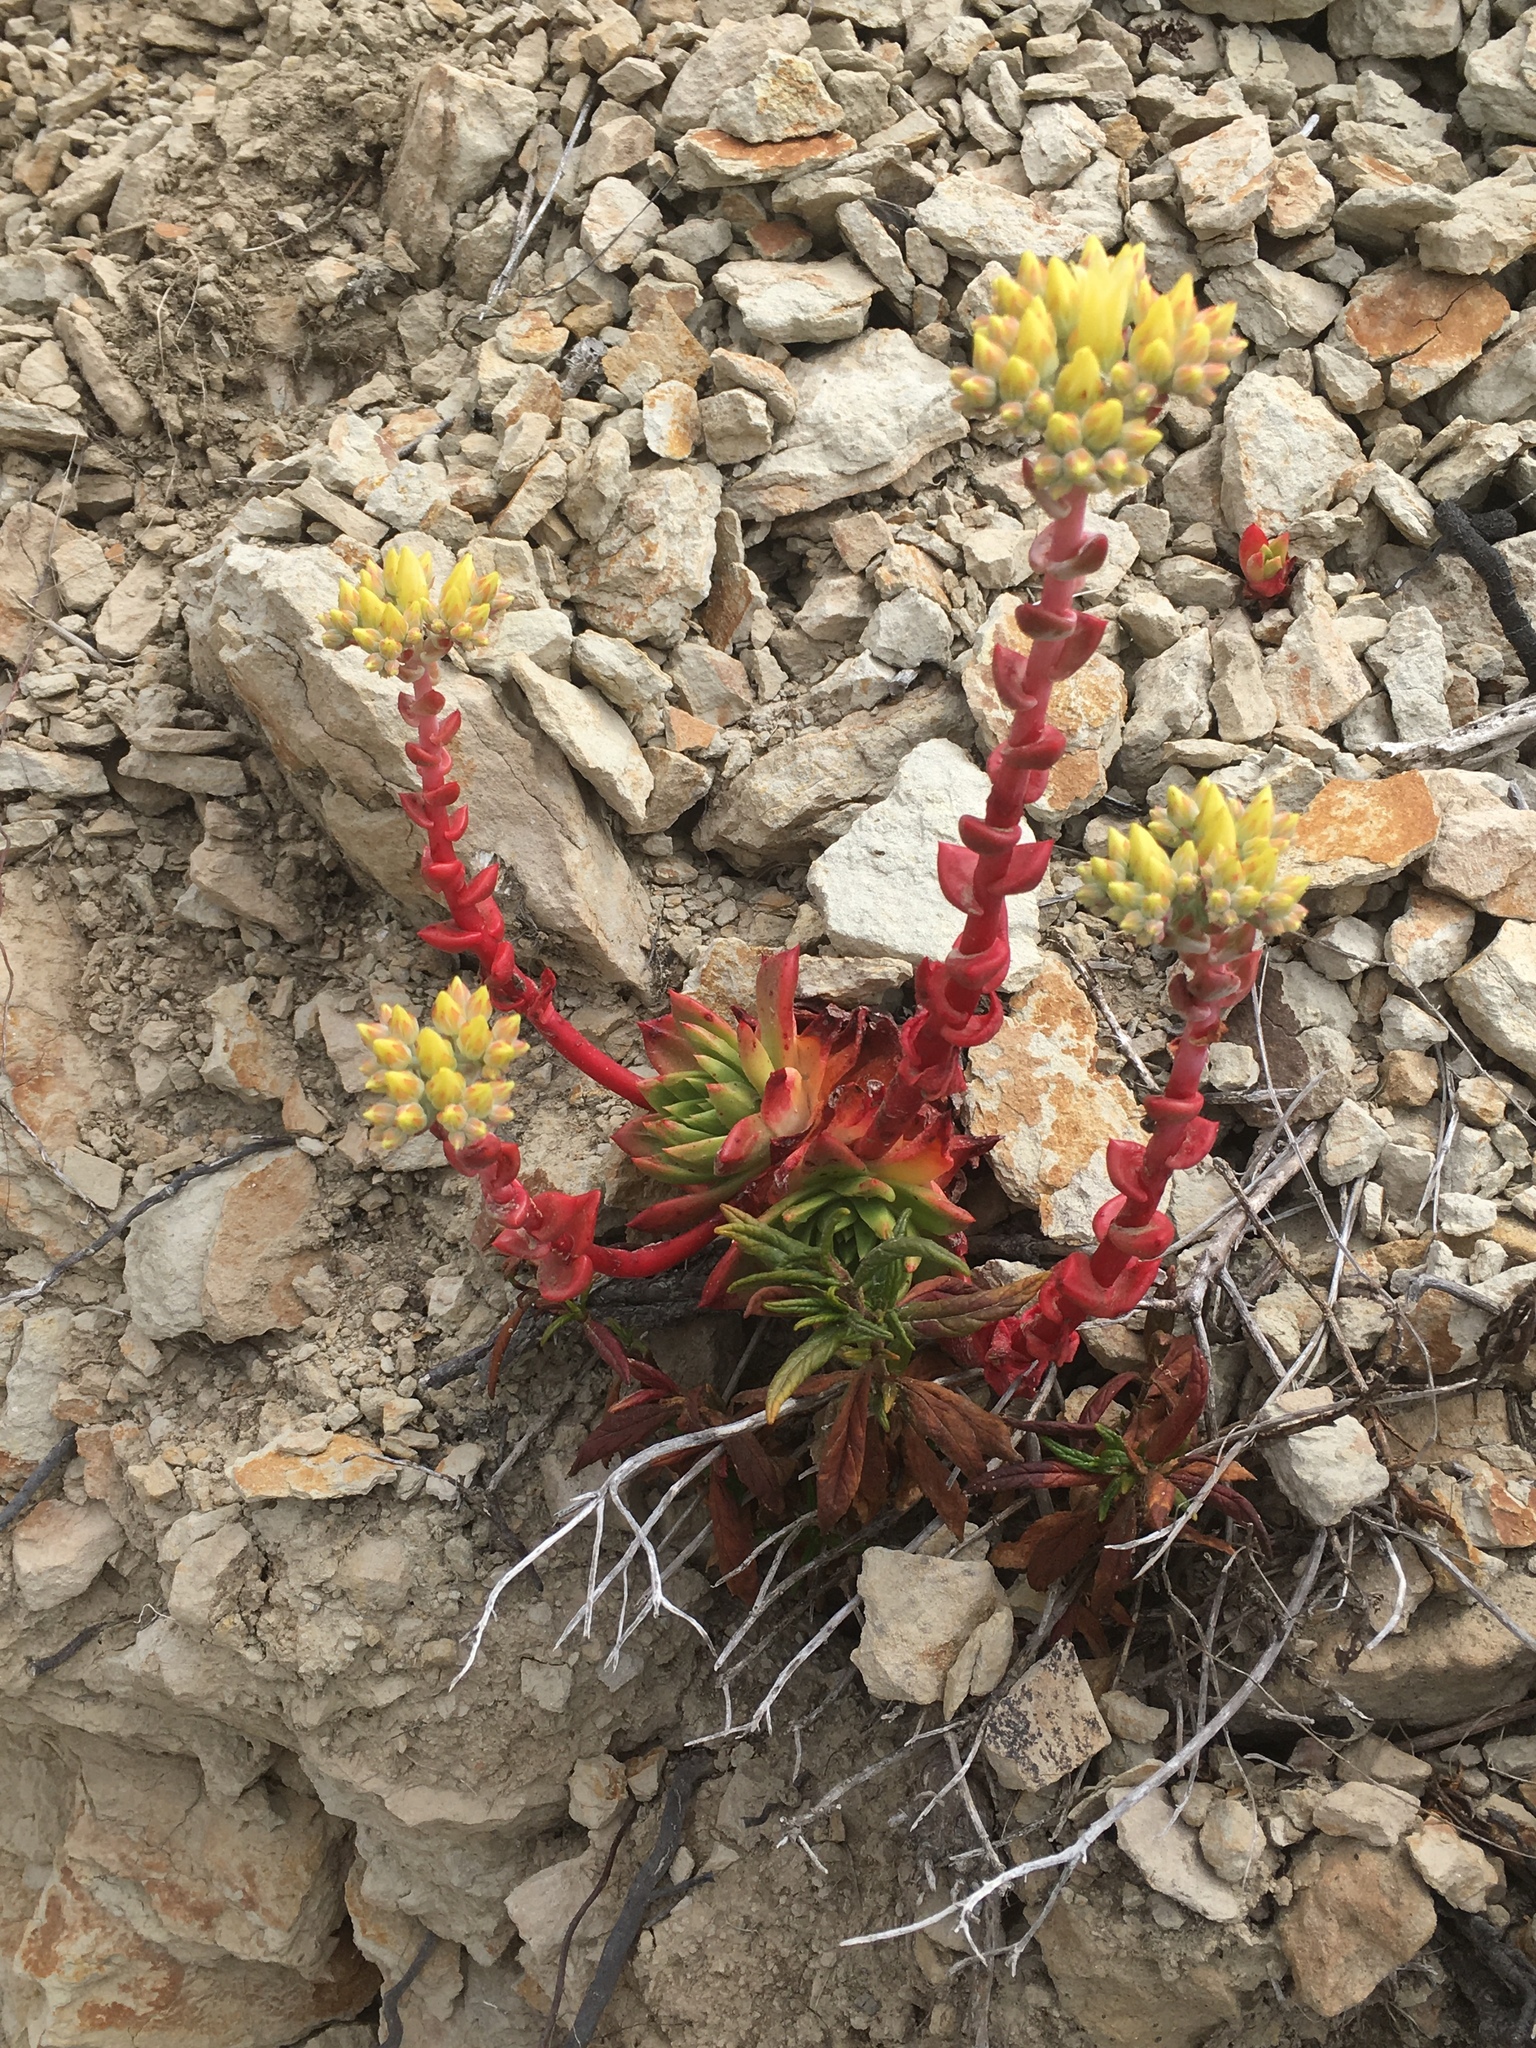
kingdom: Plantae
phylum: Tracheophyta
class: Magnoliopsida
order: Saxifragales
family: Crassulaceae
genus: Dudleya
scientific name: Dudleya farinosa
